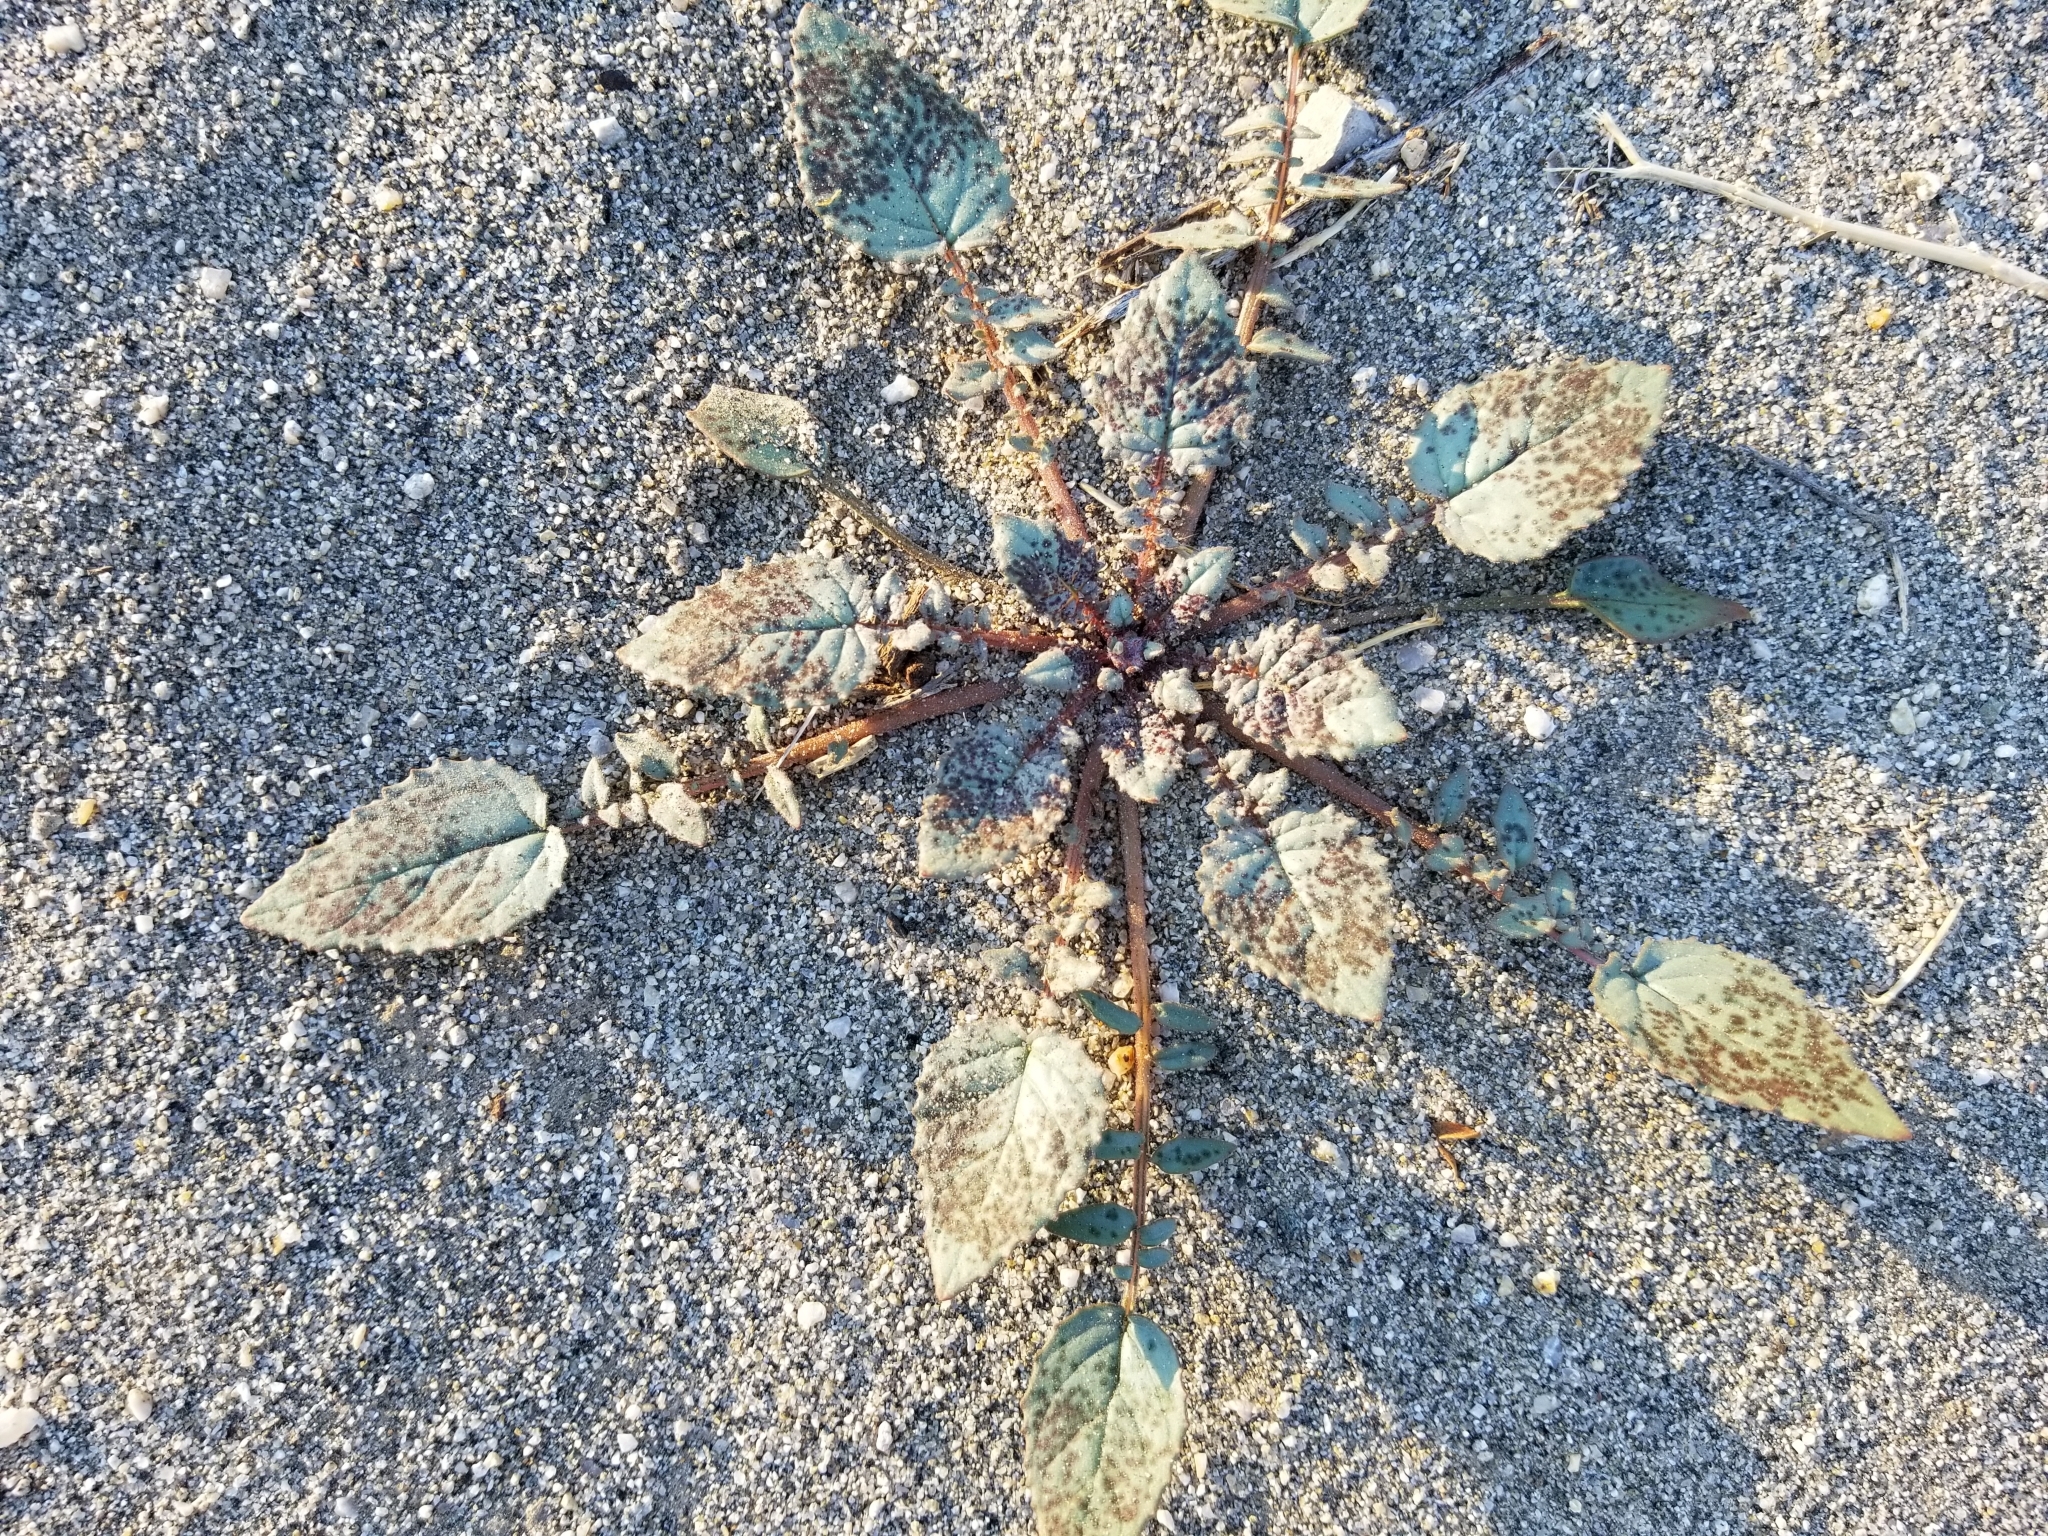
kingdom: Plantae
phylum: Tracheophyta
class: Magnoliopsida
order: Myrtales
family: Onagraceae
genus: Chylismia
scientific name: Chylismia brevipes
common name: Yellow cups
